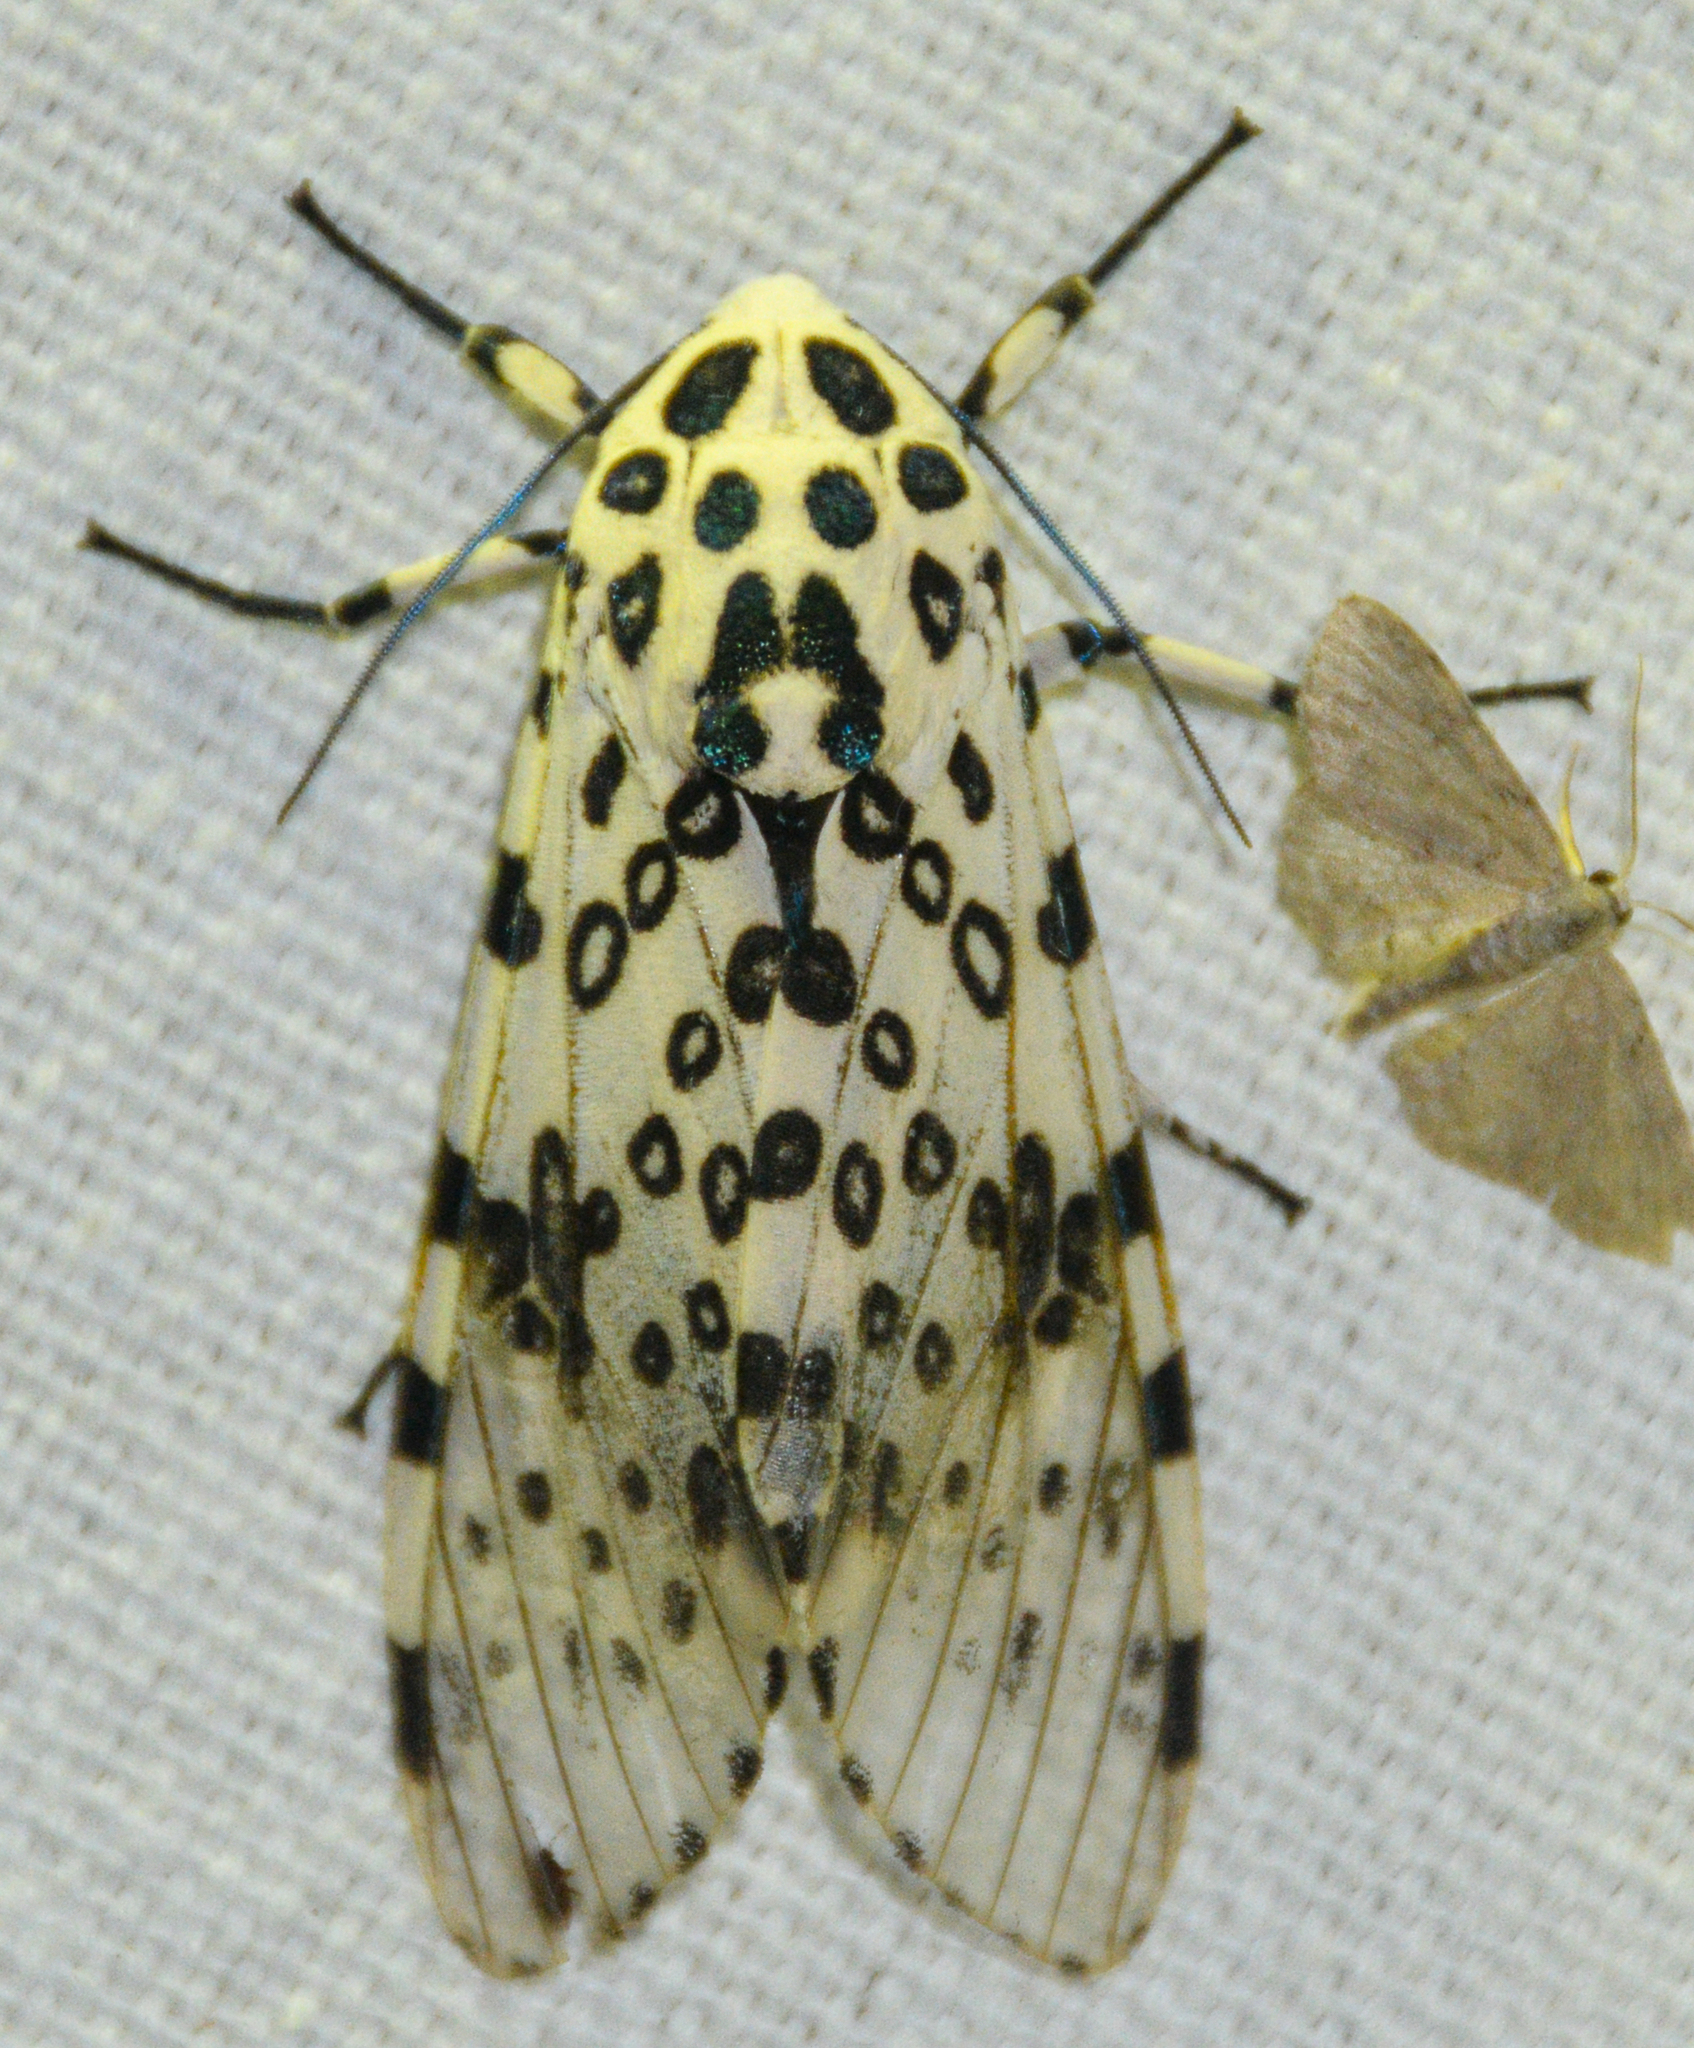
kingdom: Animalia
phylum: Arthropoda
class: Insecta
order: Lepidoptera
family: Erebidae
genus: Hypercompe
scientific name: Hypercompe scribonia
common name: Giant leopard moth
